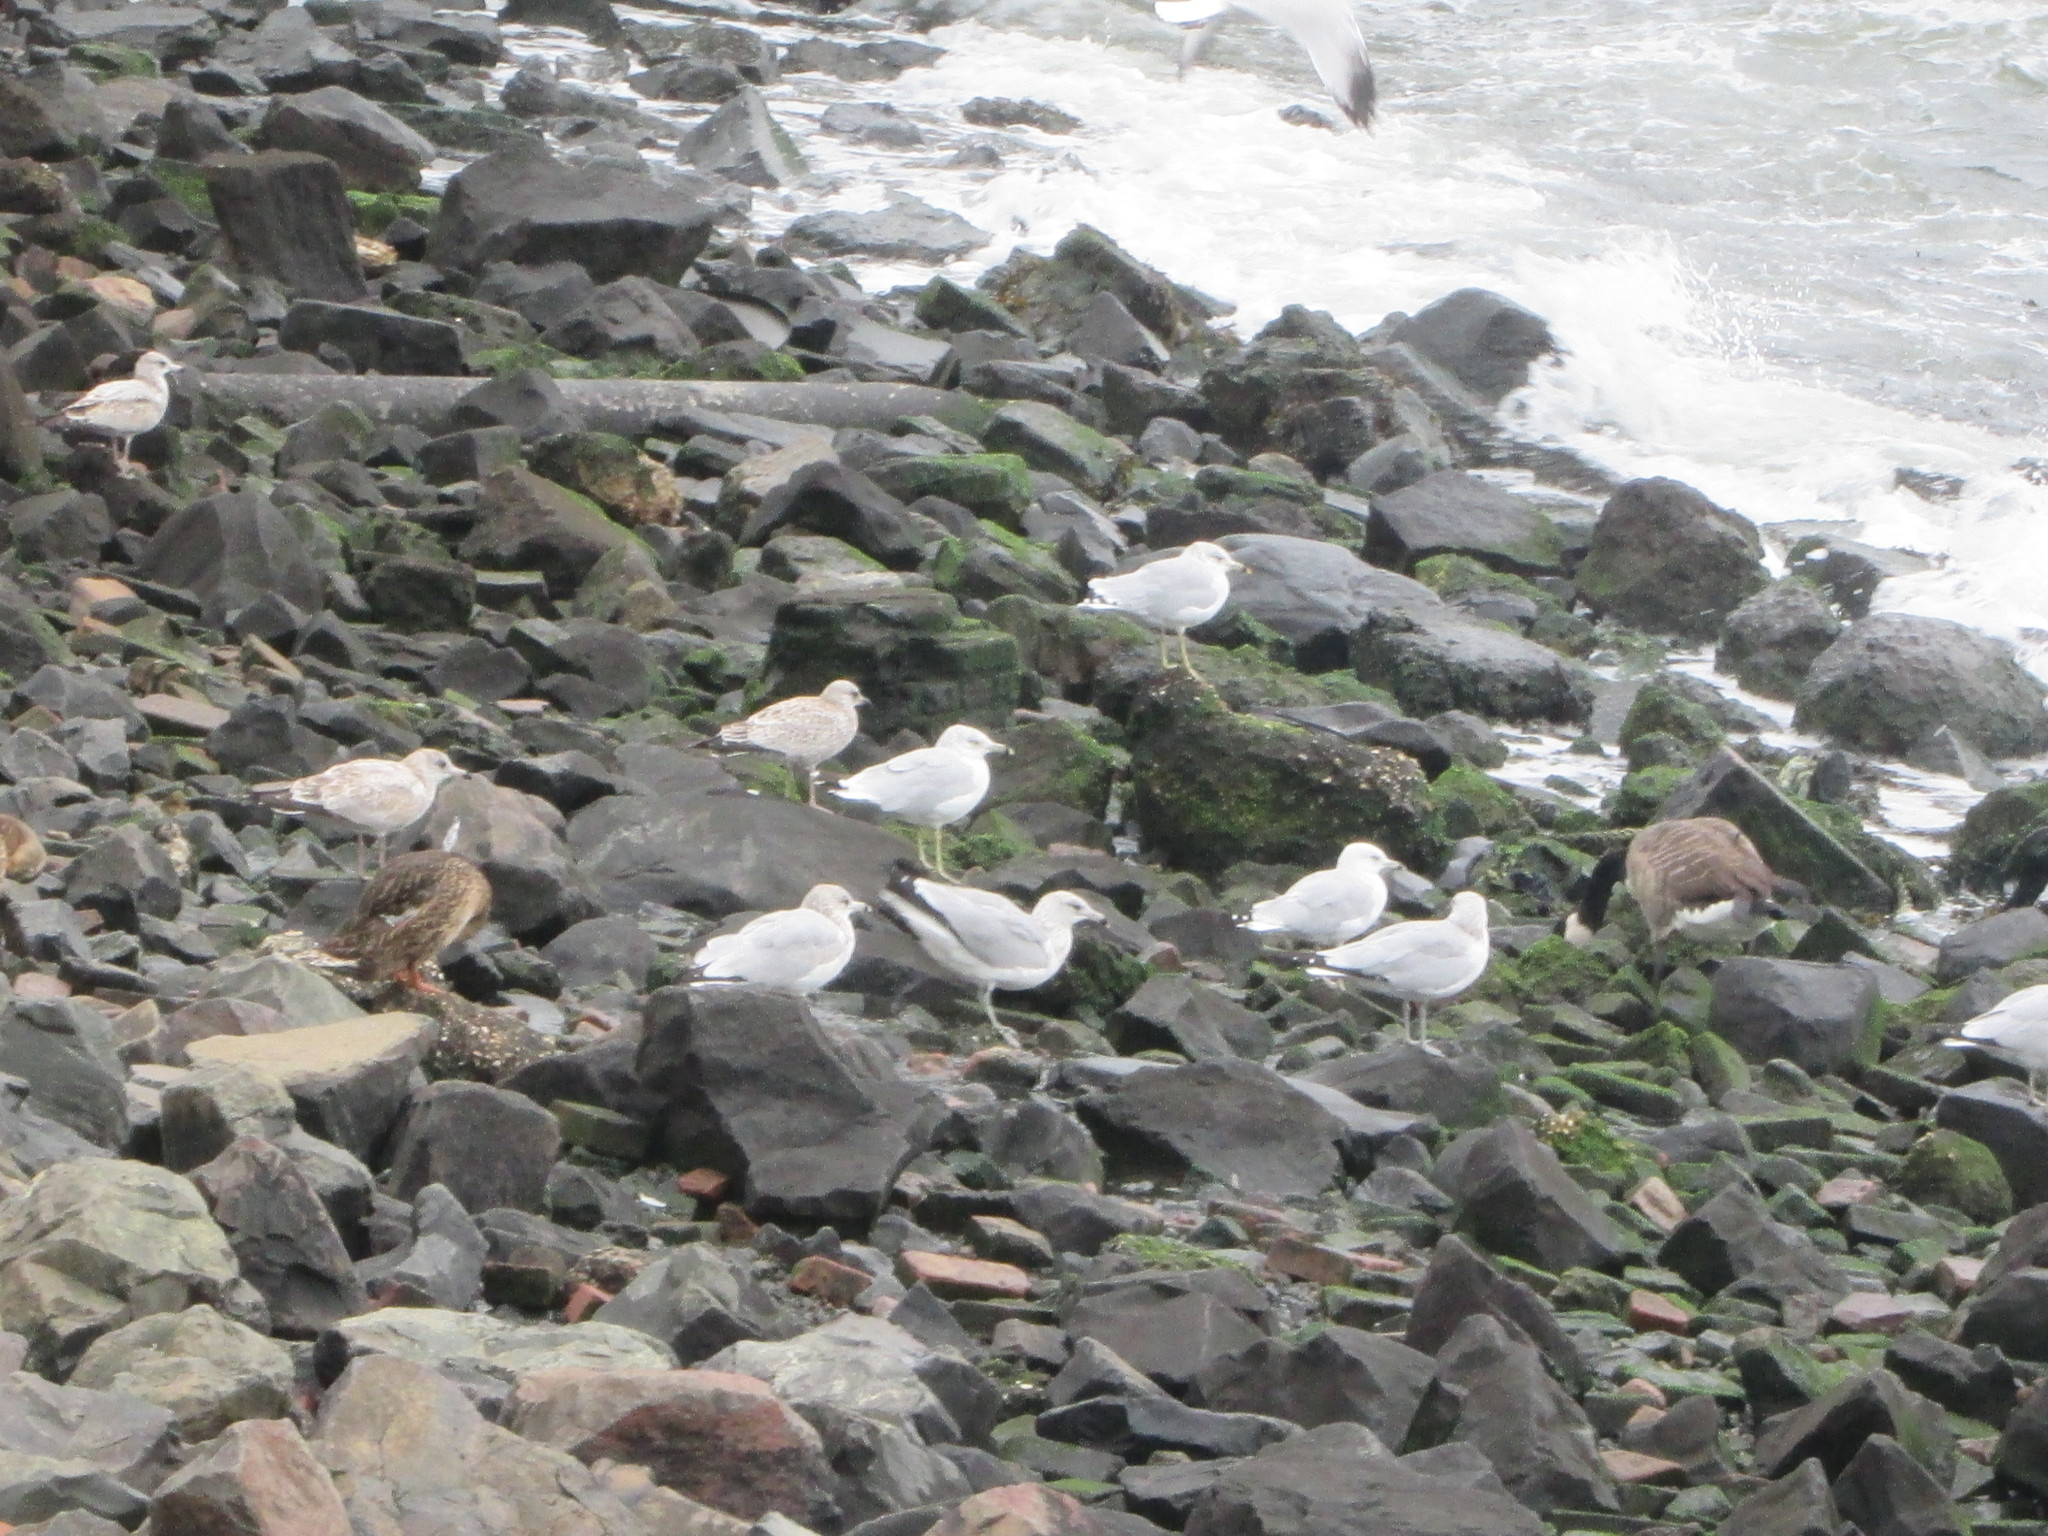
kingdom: Animalia
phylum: Chordata
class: Aves
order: Charadriiformes
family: Laridae
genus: Larus
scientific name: Larus delawarensis
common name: Ring-billed gull
